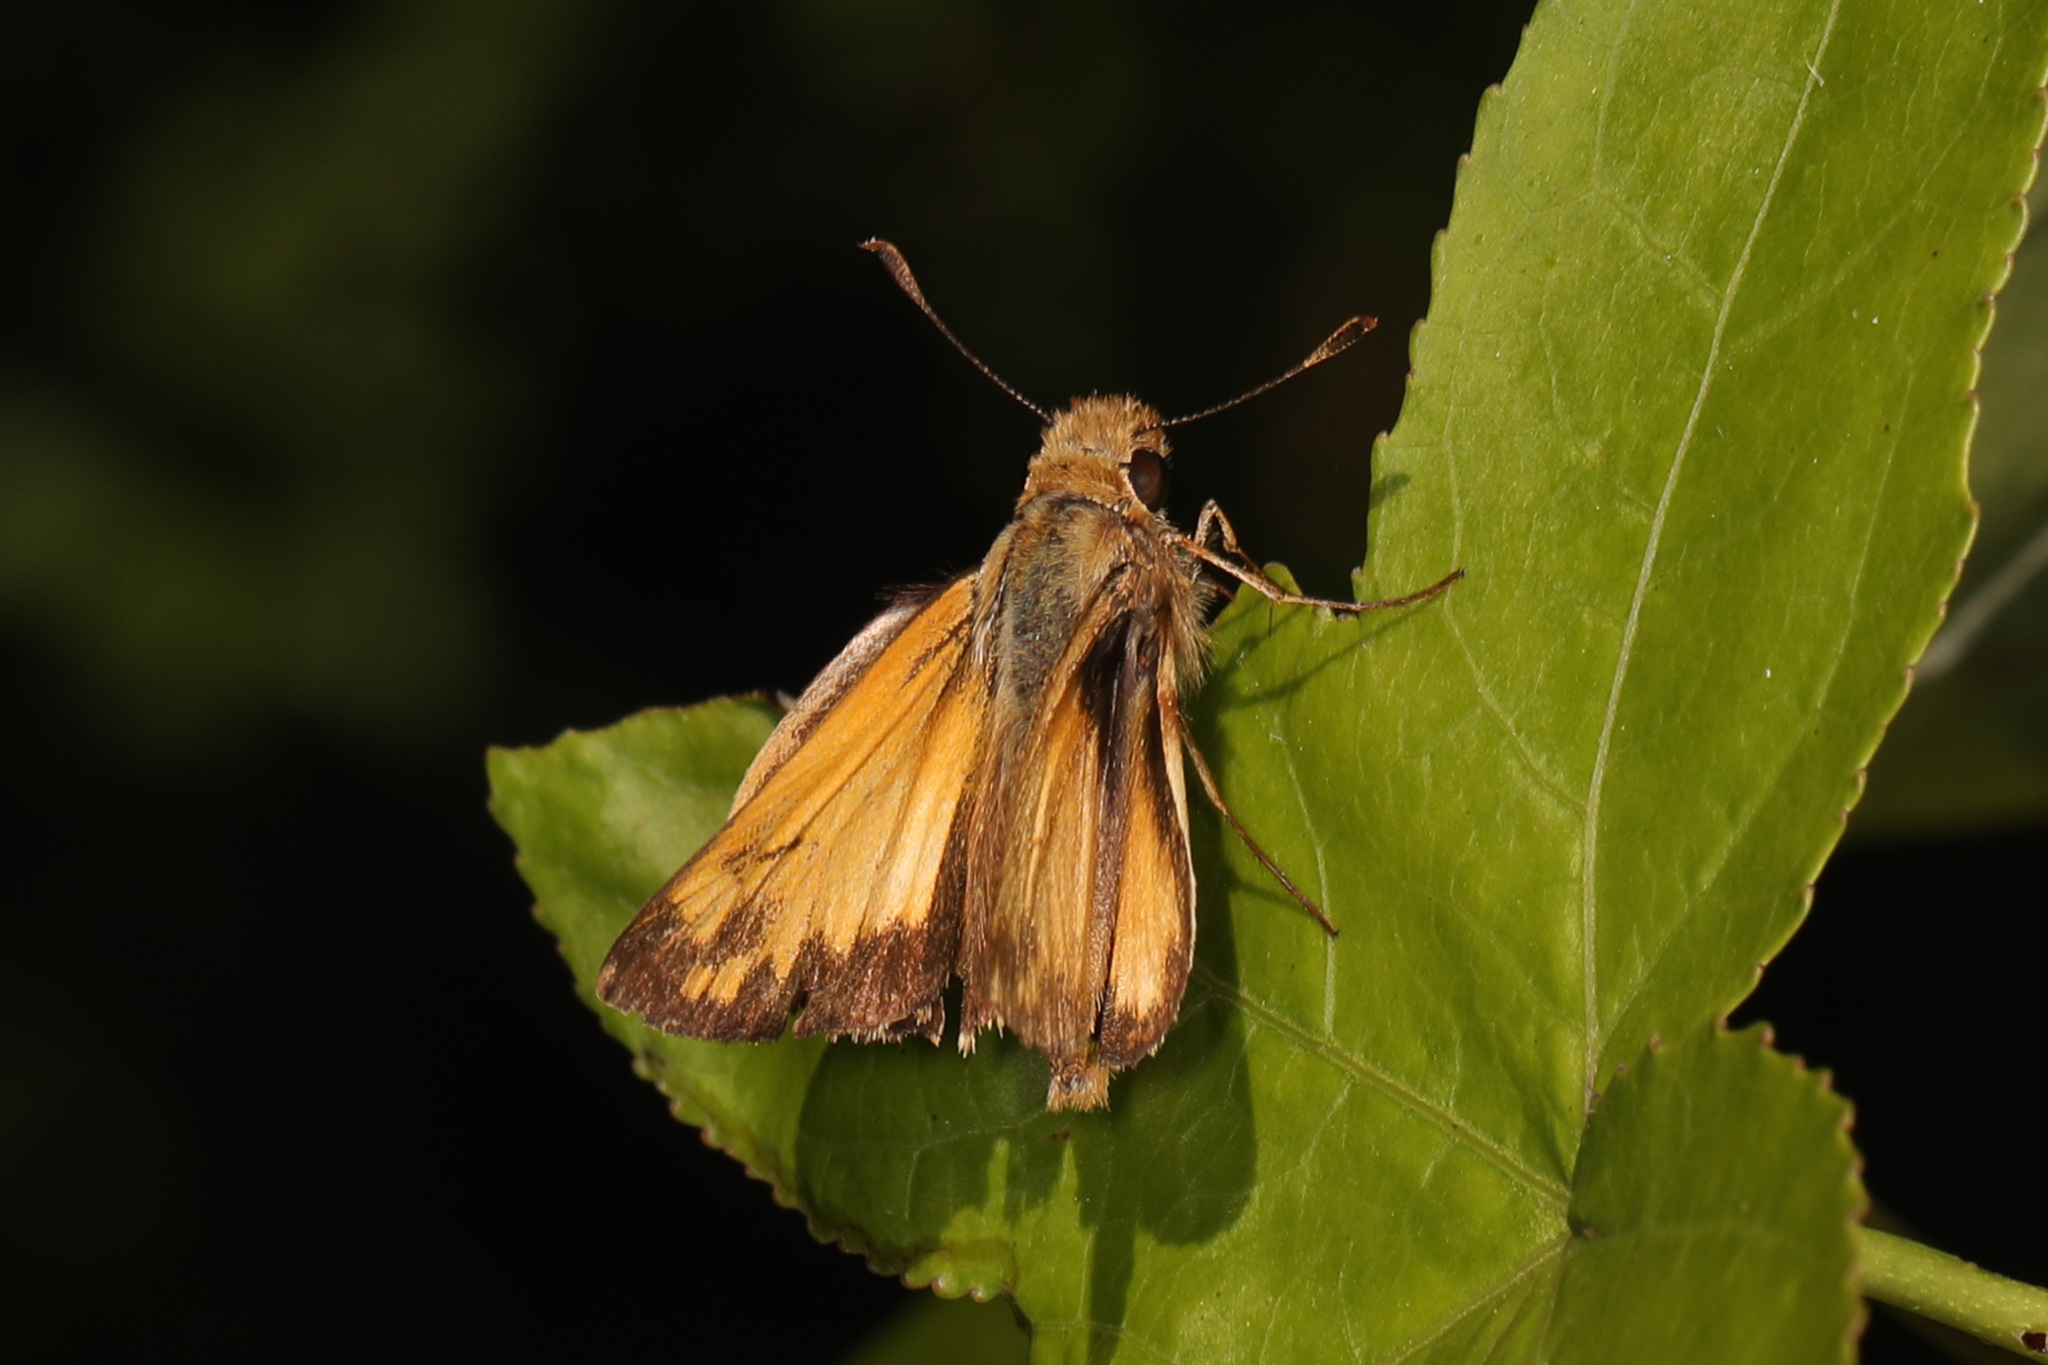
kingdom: Animalia
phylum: Arthropoda
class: Insecta
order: Lepidoptera
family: Hesperiidae
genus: Lon
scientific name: Lon zabulon
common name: Zabulon skipper
